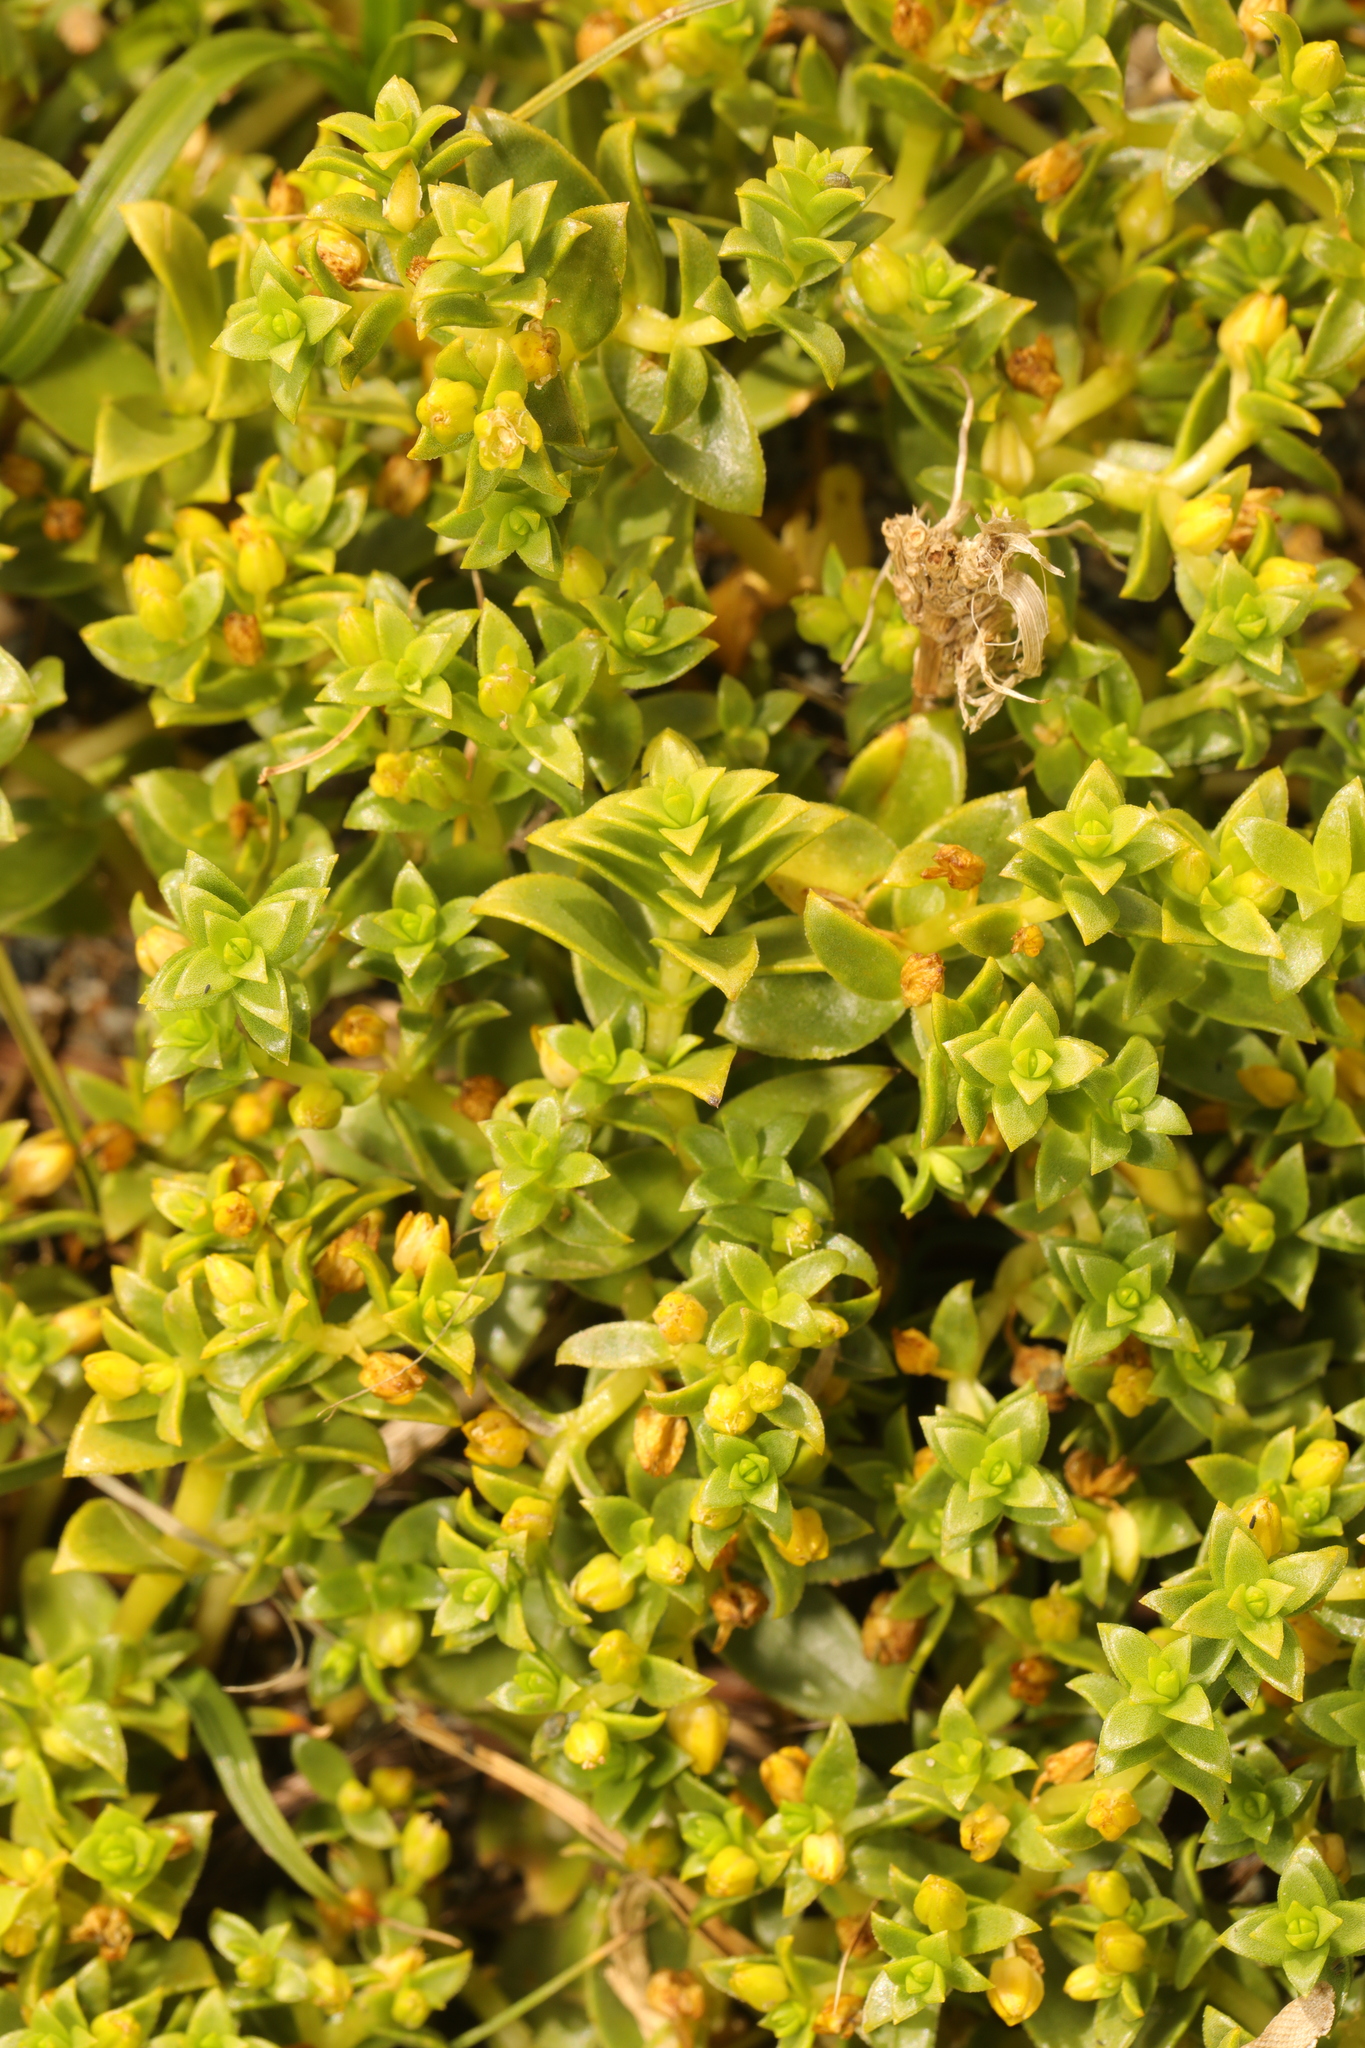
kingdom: Plantae
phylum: Tracheophyta
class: Magnoliopsida
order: Caryophyllales
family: Caryophyllaceae
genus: Honckenya
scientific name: Honckenya peploides
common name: Sea sandwort
